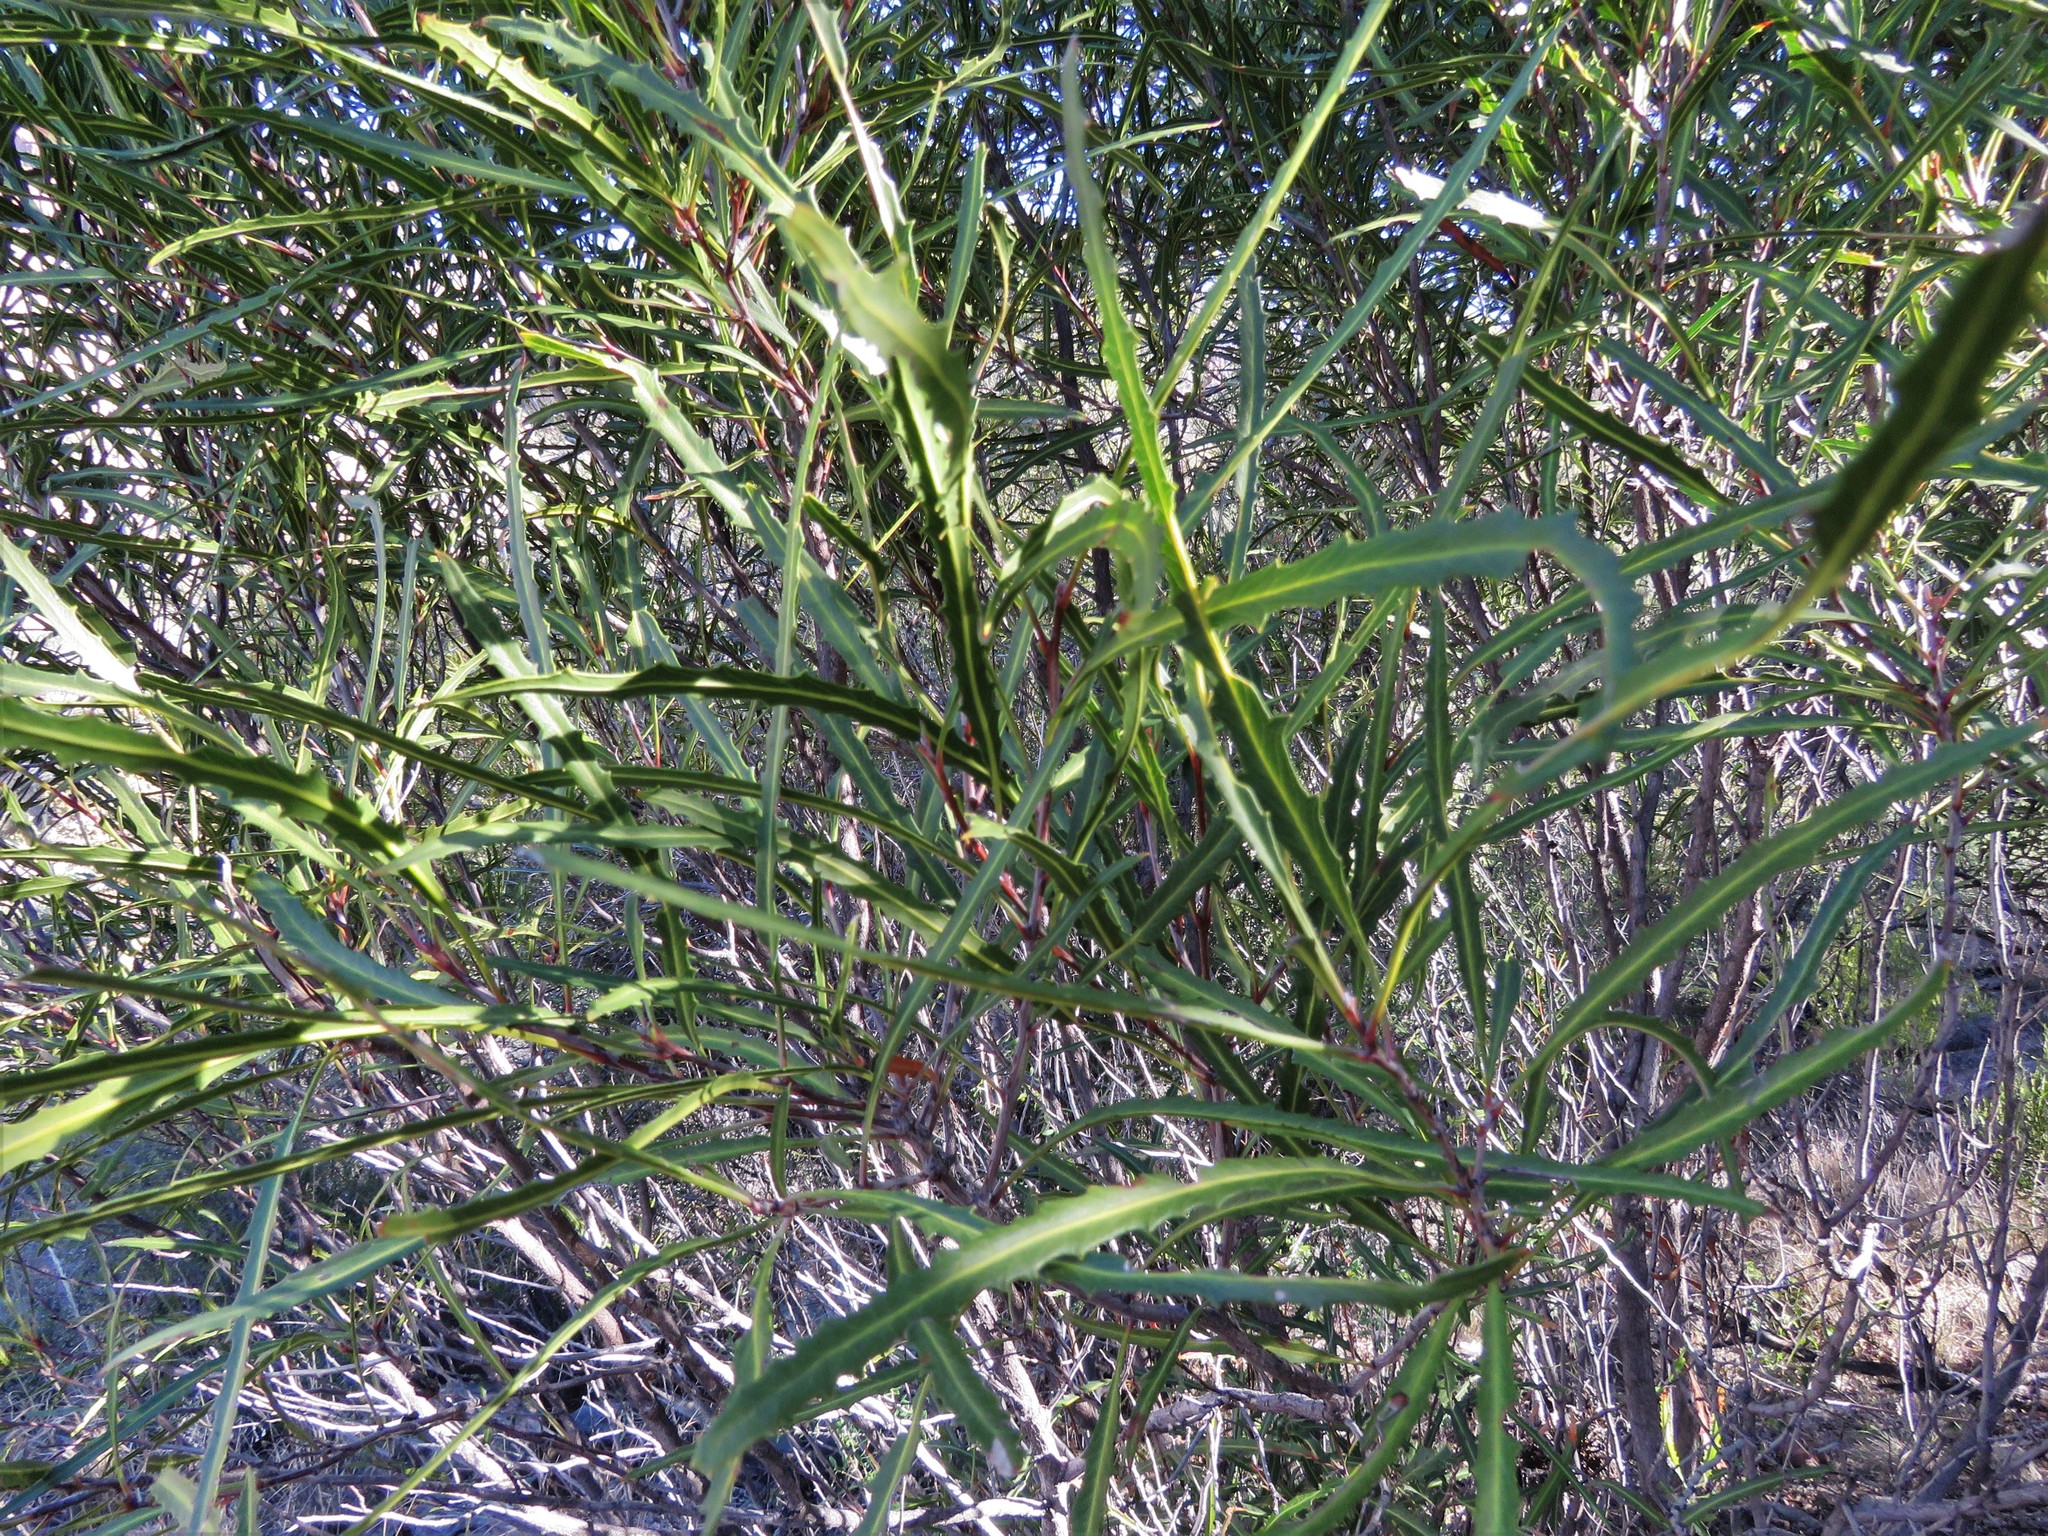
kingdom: Plantae
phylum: Tracheophyta
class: Magnoliopsida
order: Rosales
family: Rosaceae
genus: Vauquelinia
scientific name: Vauquelinia corymbosa
